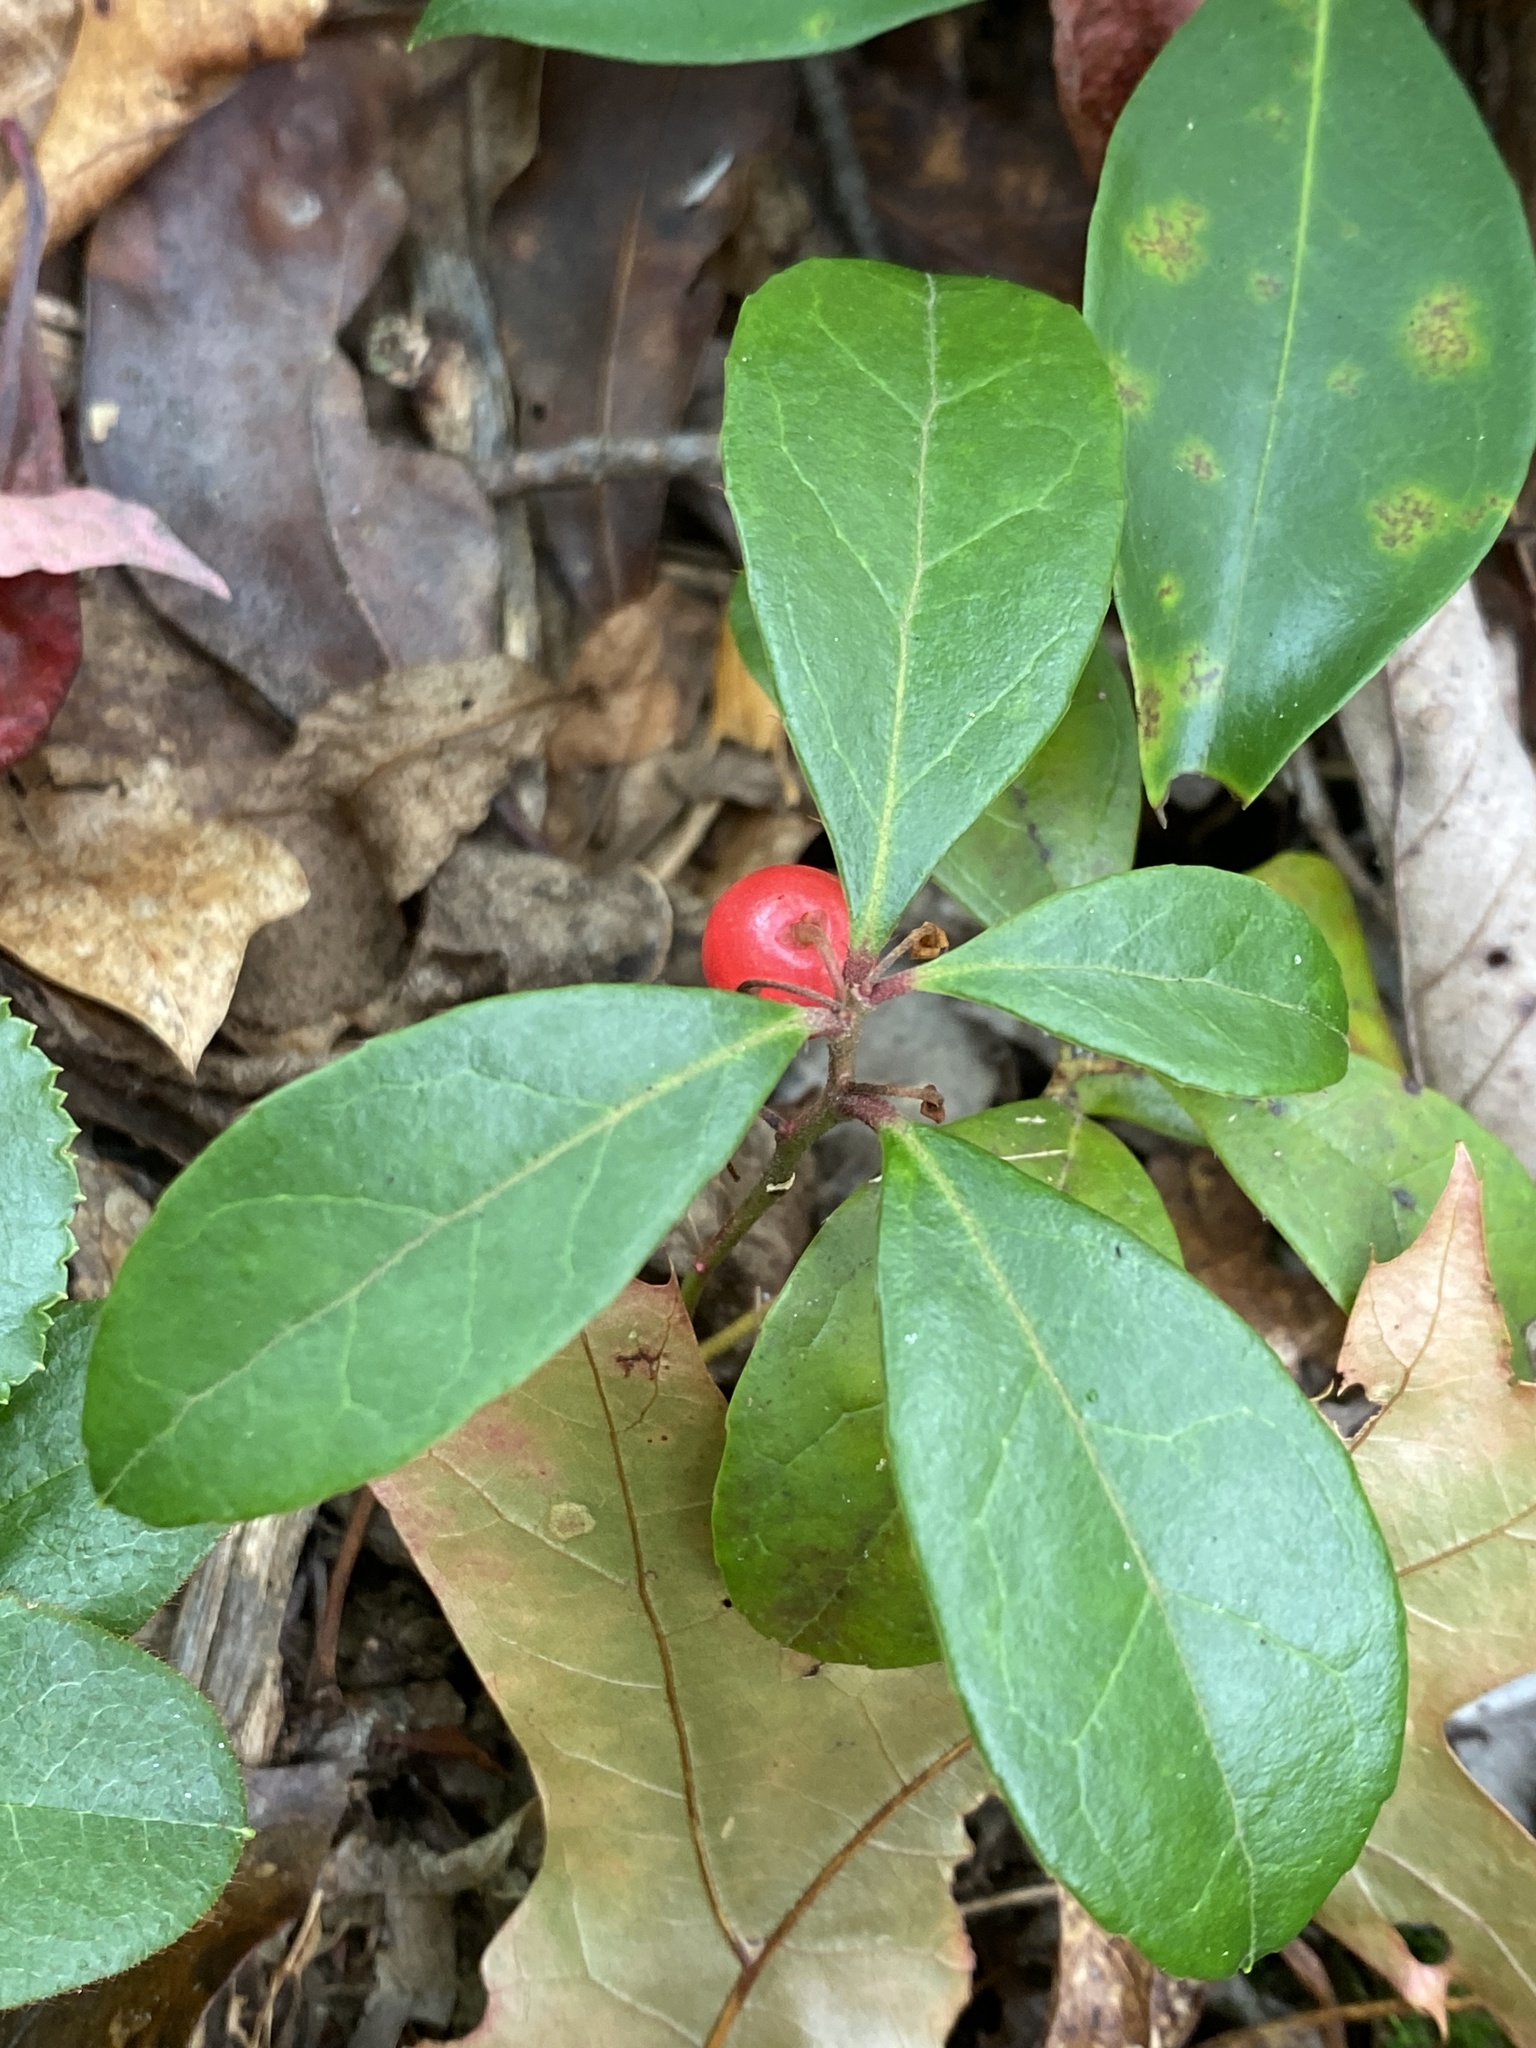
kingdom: Plantae
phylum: Tracheophyta
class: Magnoliopsida
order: Ericales
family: Ericaceae
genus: Gaultheria
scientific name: Gaultheria procumbens
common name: Checkerberry
